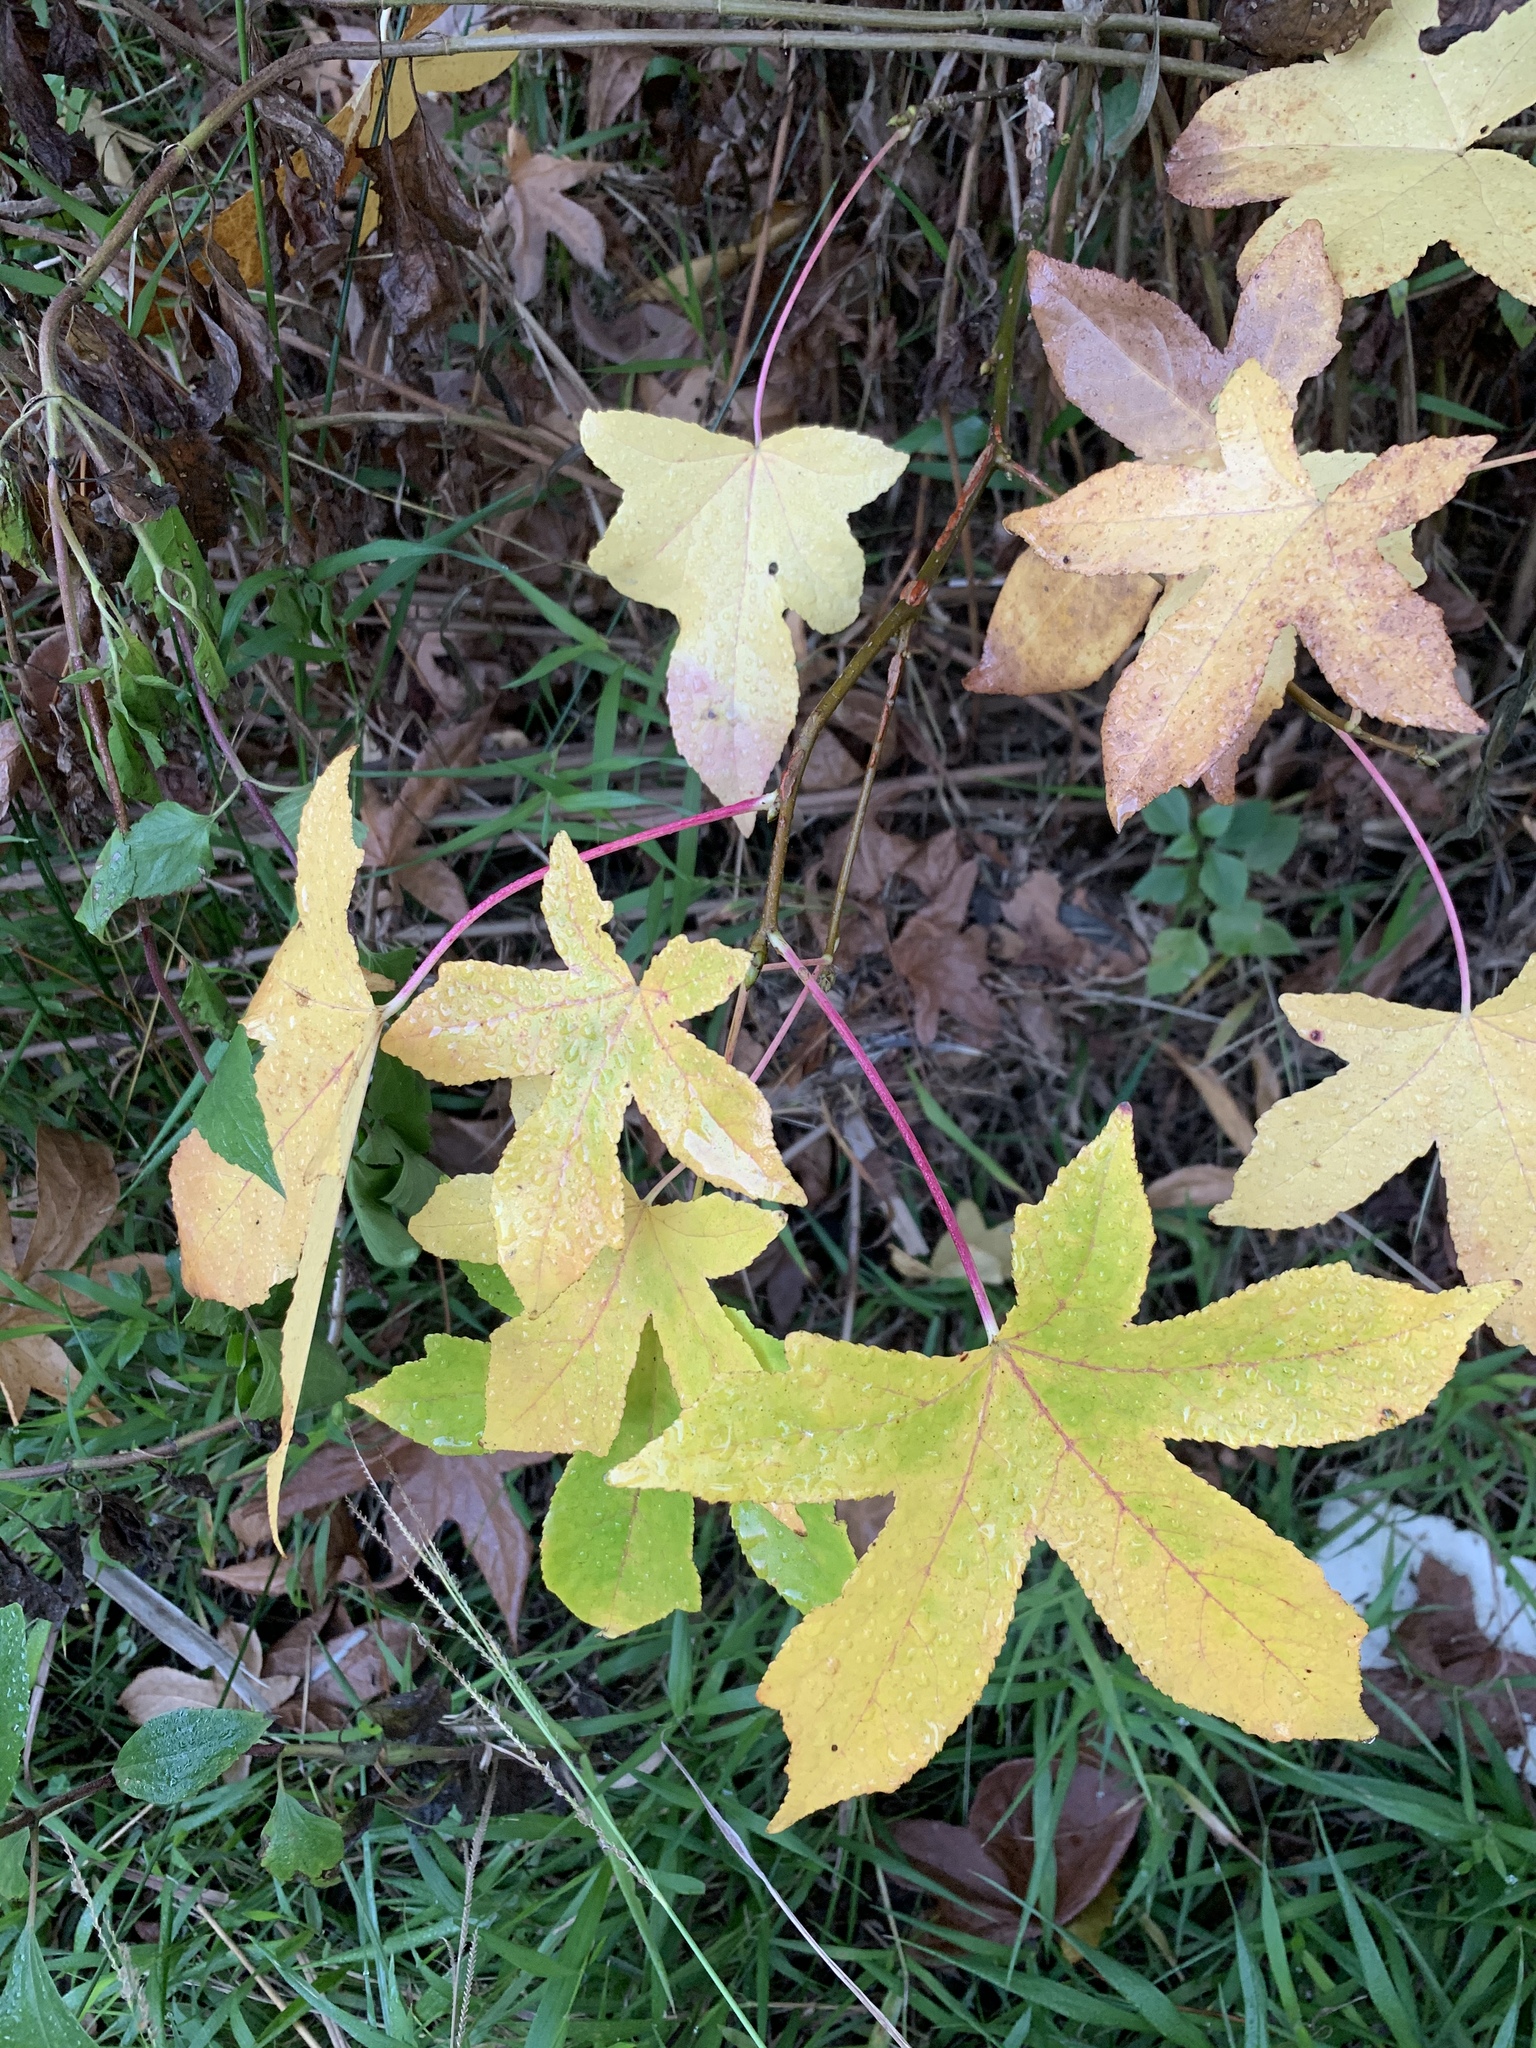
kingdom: Plantae
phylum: Tracheophyta
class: Magnoliopsida
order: Saxifragales
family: Altingiaceae
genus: Liquidambar
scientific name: Liquidambar styraciflua
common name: Sweet gum
